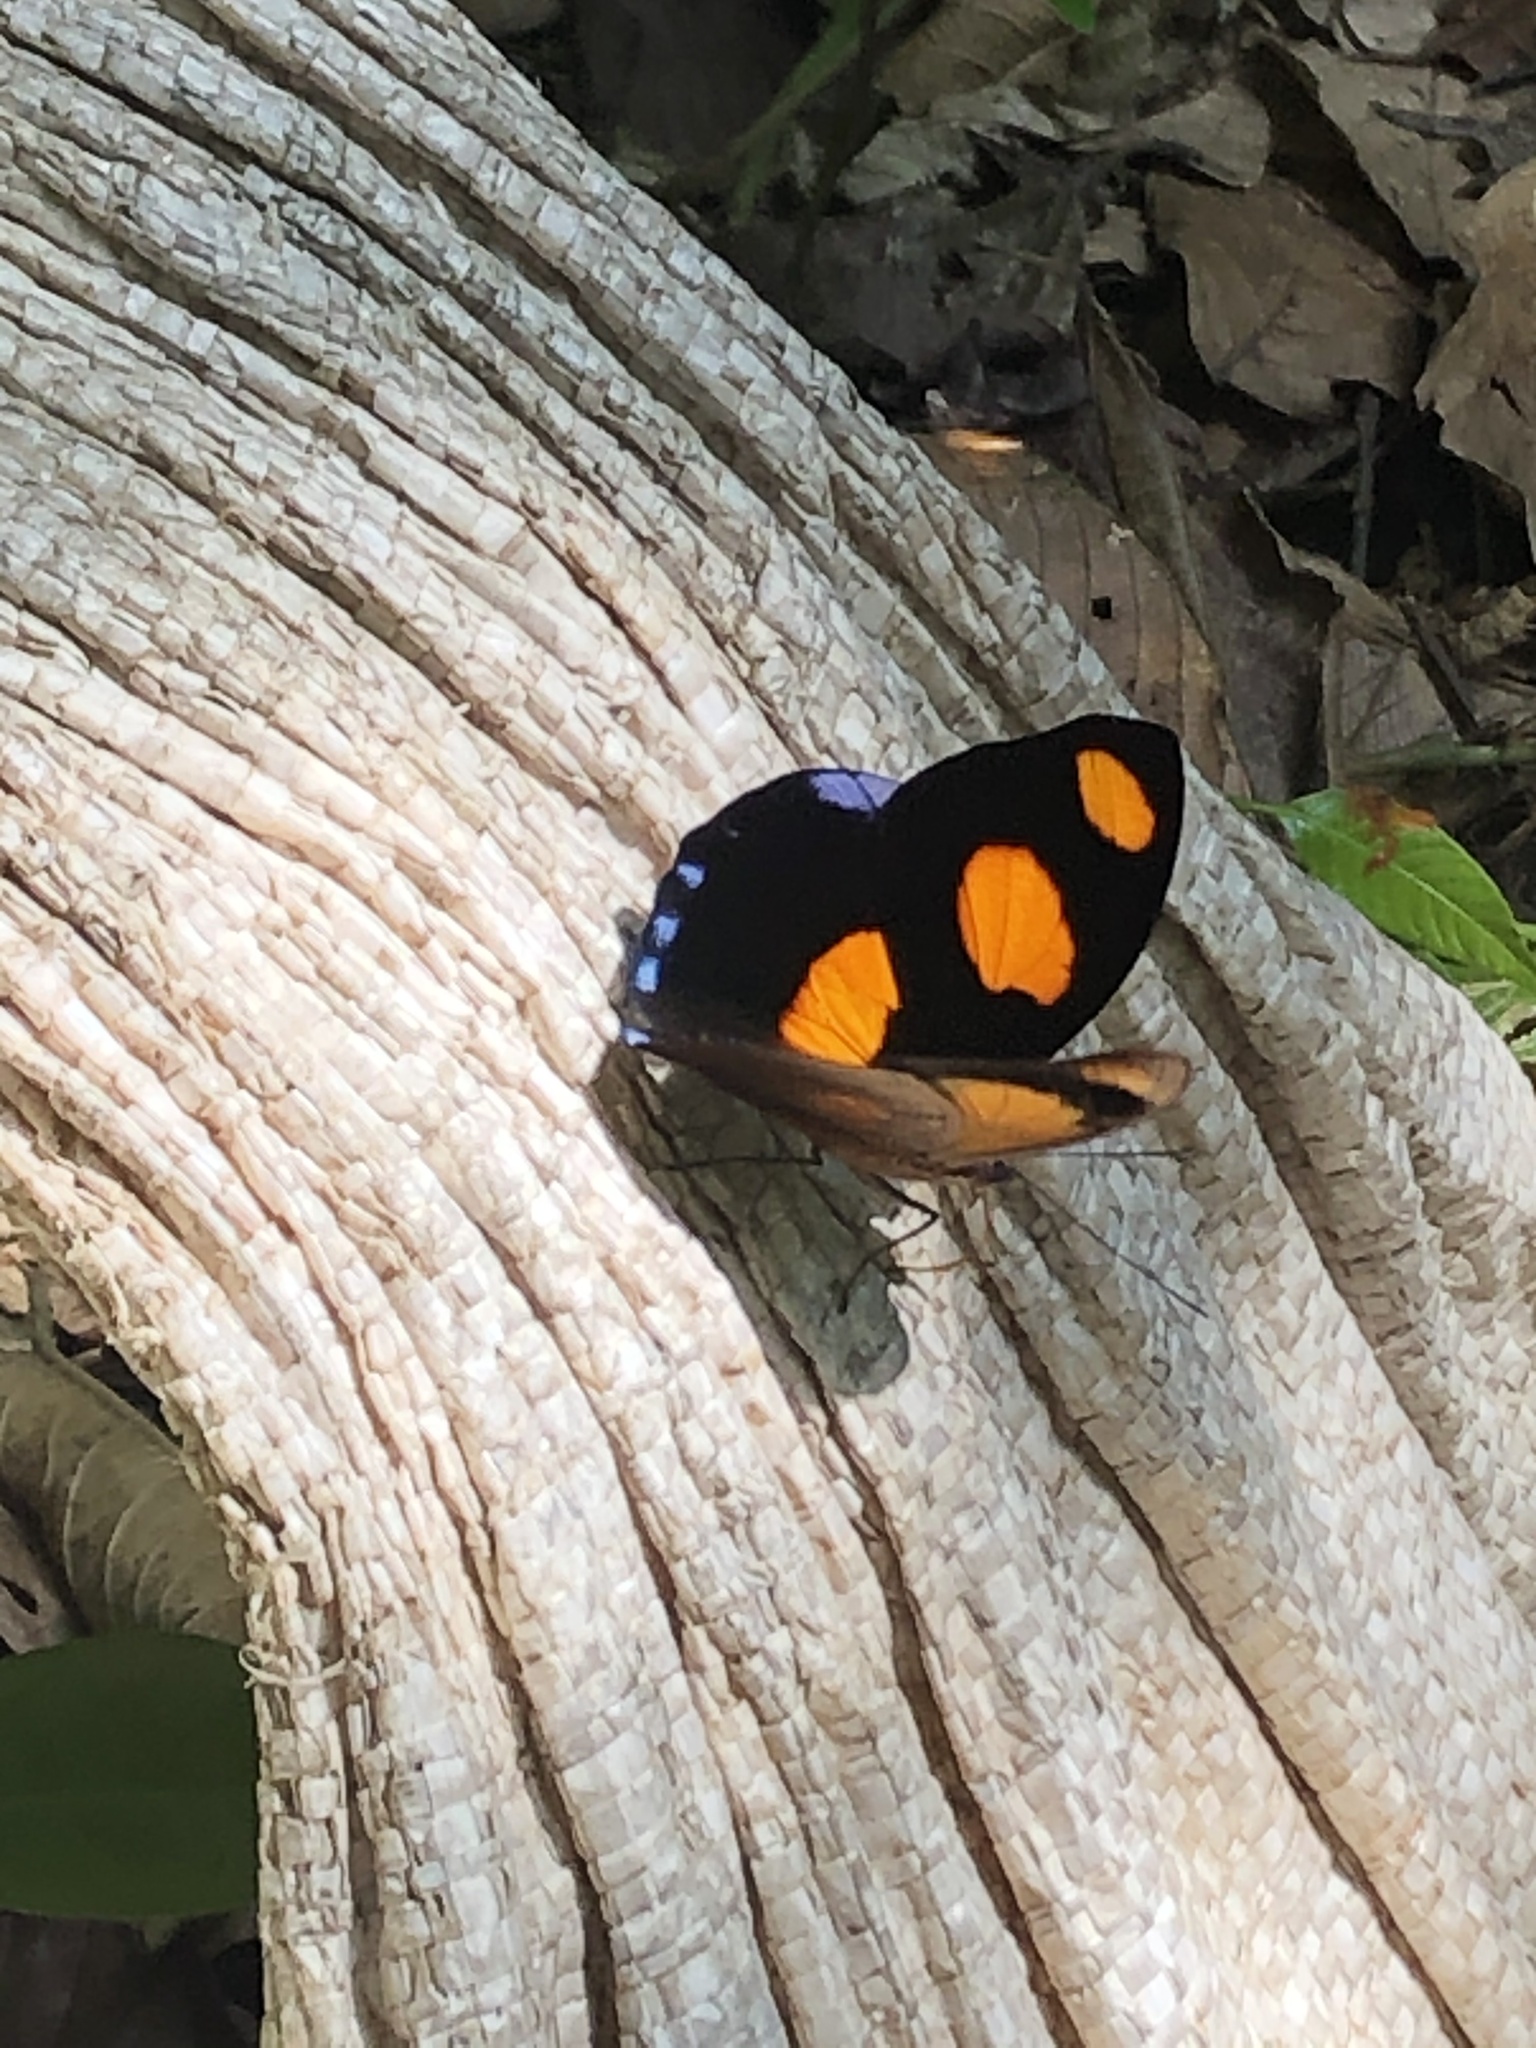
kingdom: Animalia
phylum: Arthropoda
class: Insecta
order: Lepidoptera
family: Nymphalidae
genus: Catonephele
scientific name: Catonephele numilia
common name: Blue-frosted banner
